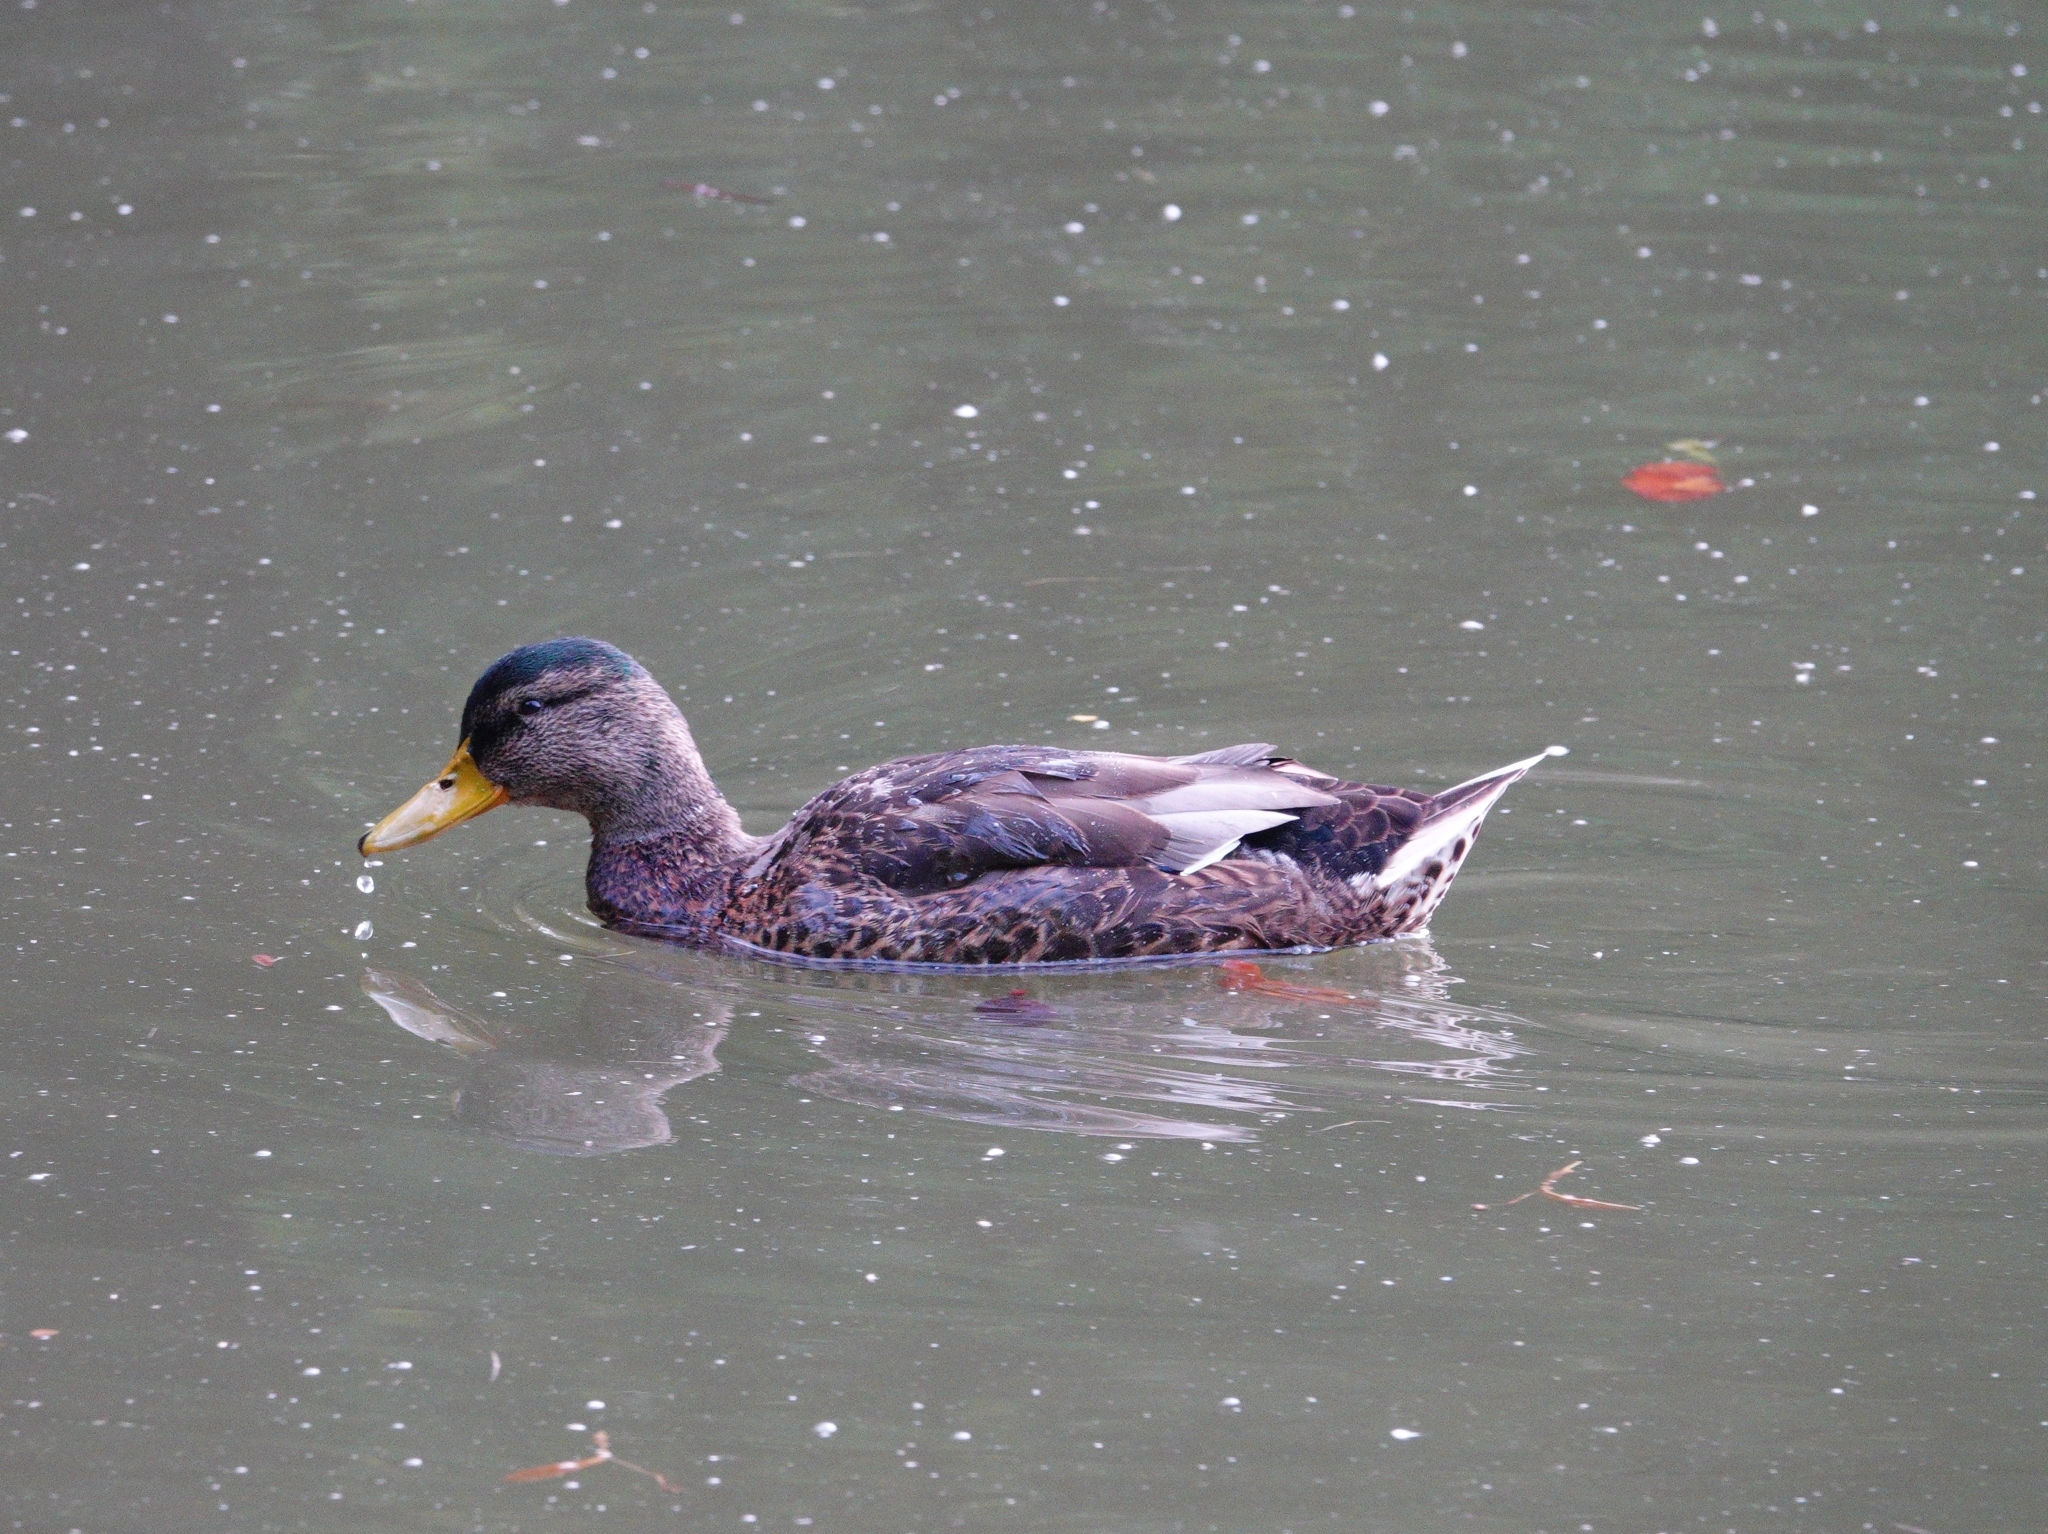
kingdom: Animalia
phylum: Chordata
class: Aves
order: Anseriformes
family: Anatidae
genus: Anas
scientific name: Anas platyrhynchos
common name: Mallard
